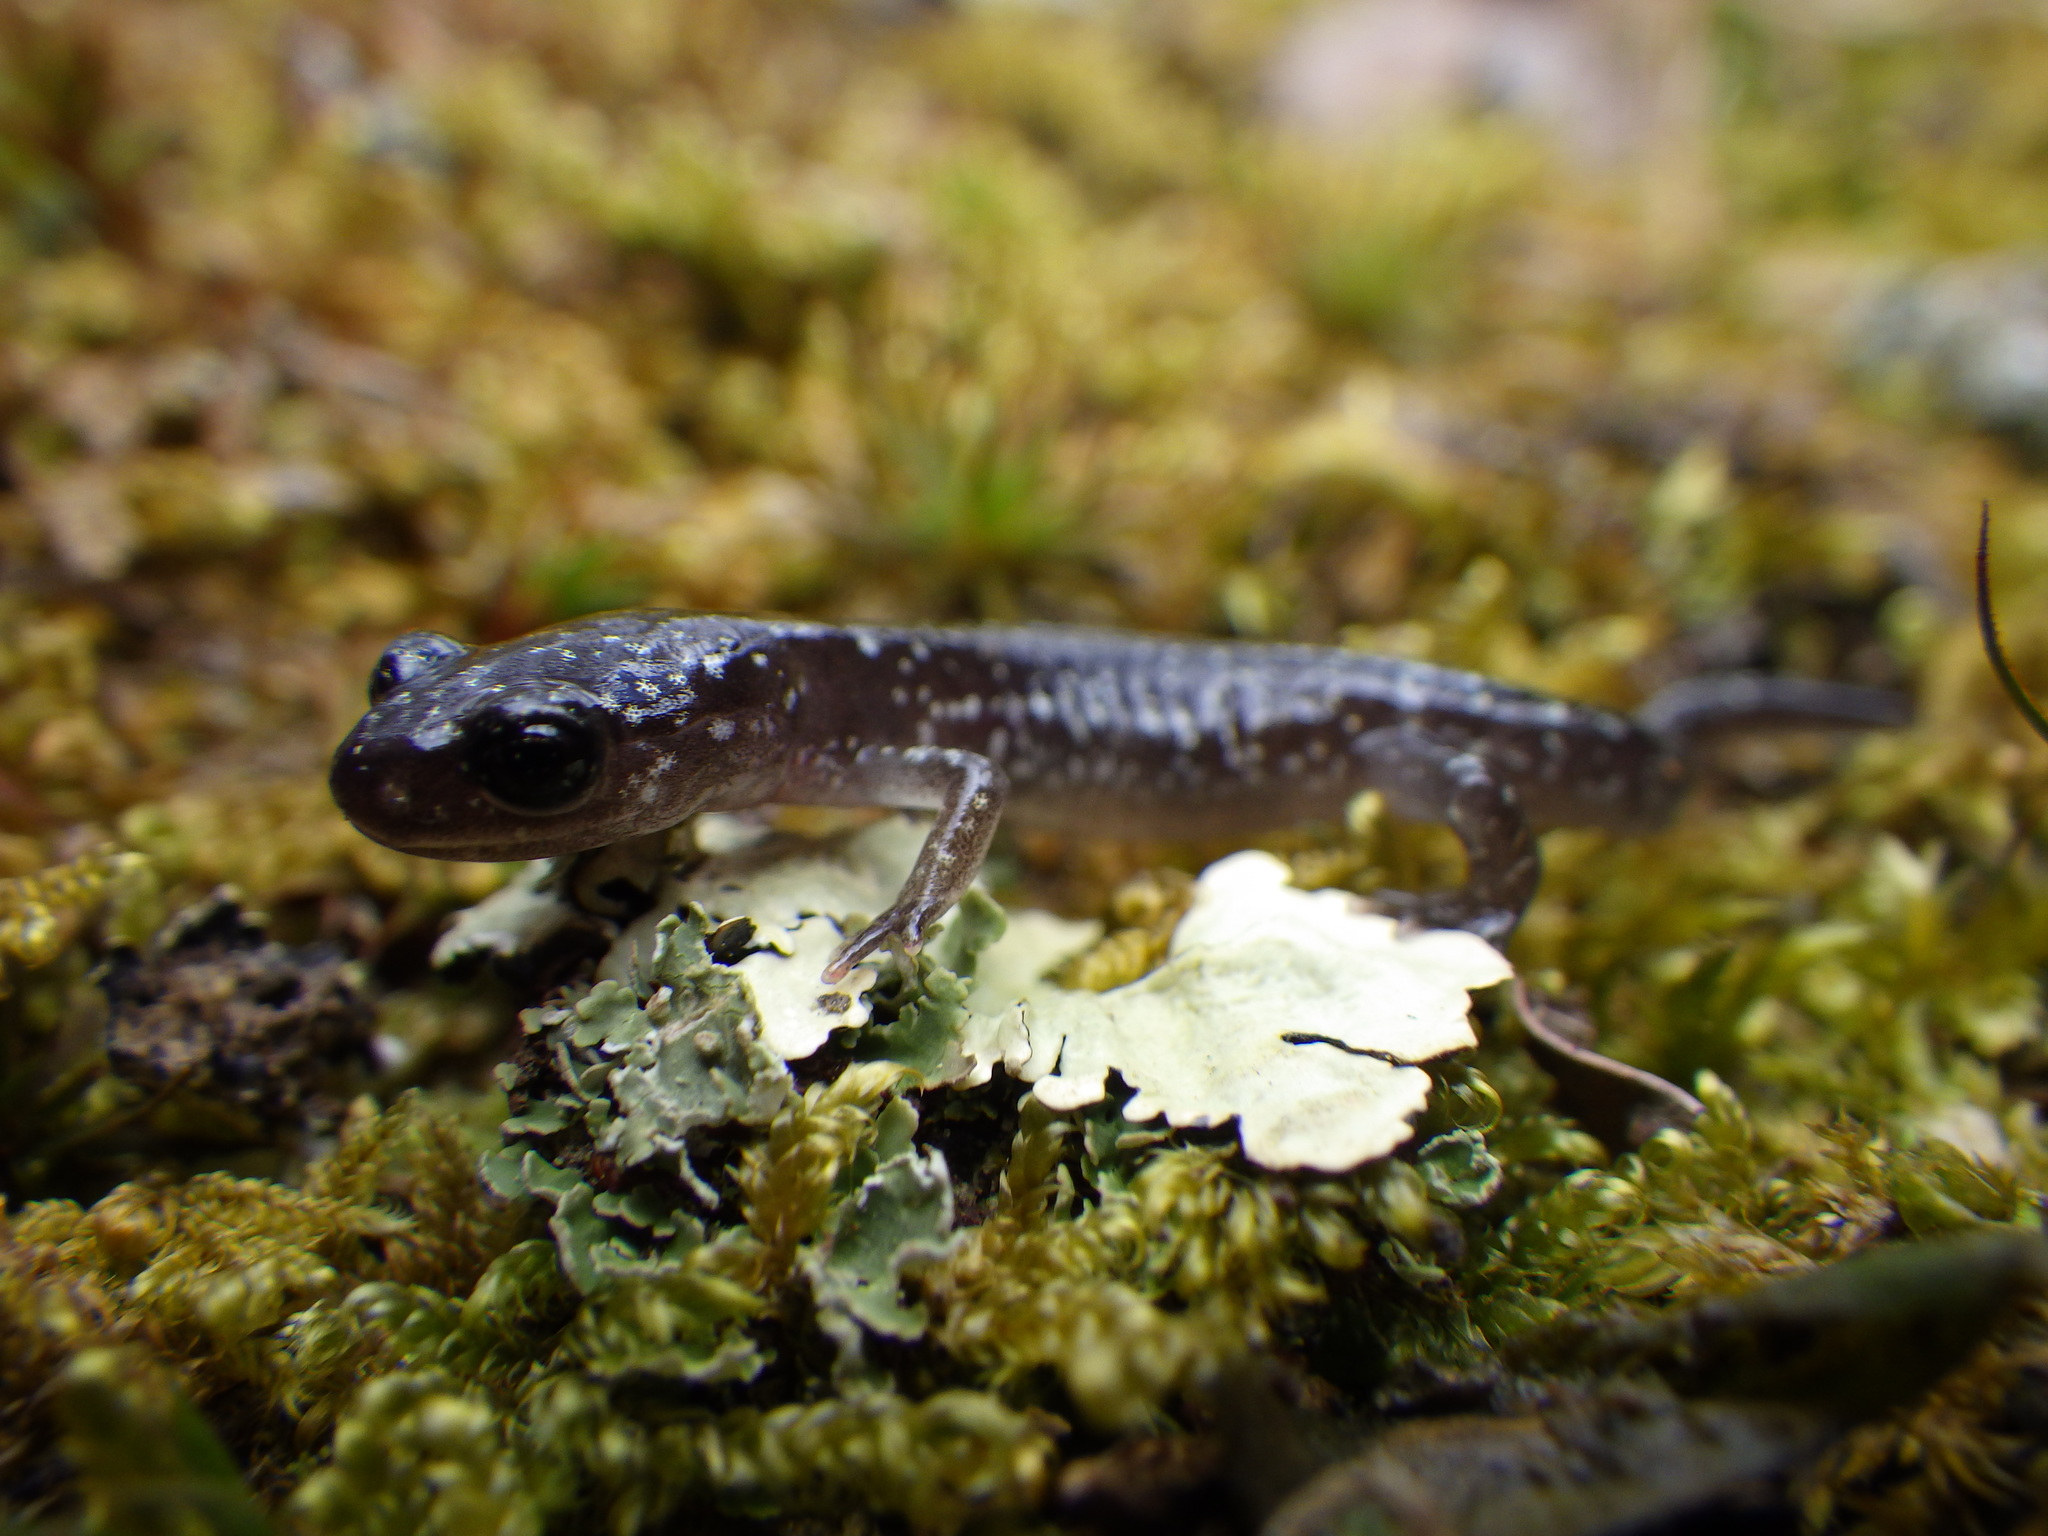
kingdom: Animalia
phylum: Chordata
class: Amphibia
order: Caudata
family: Plethodontidae
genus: Plethodon
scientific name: Plethodon glutinosus
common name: Northern slimy salamander
